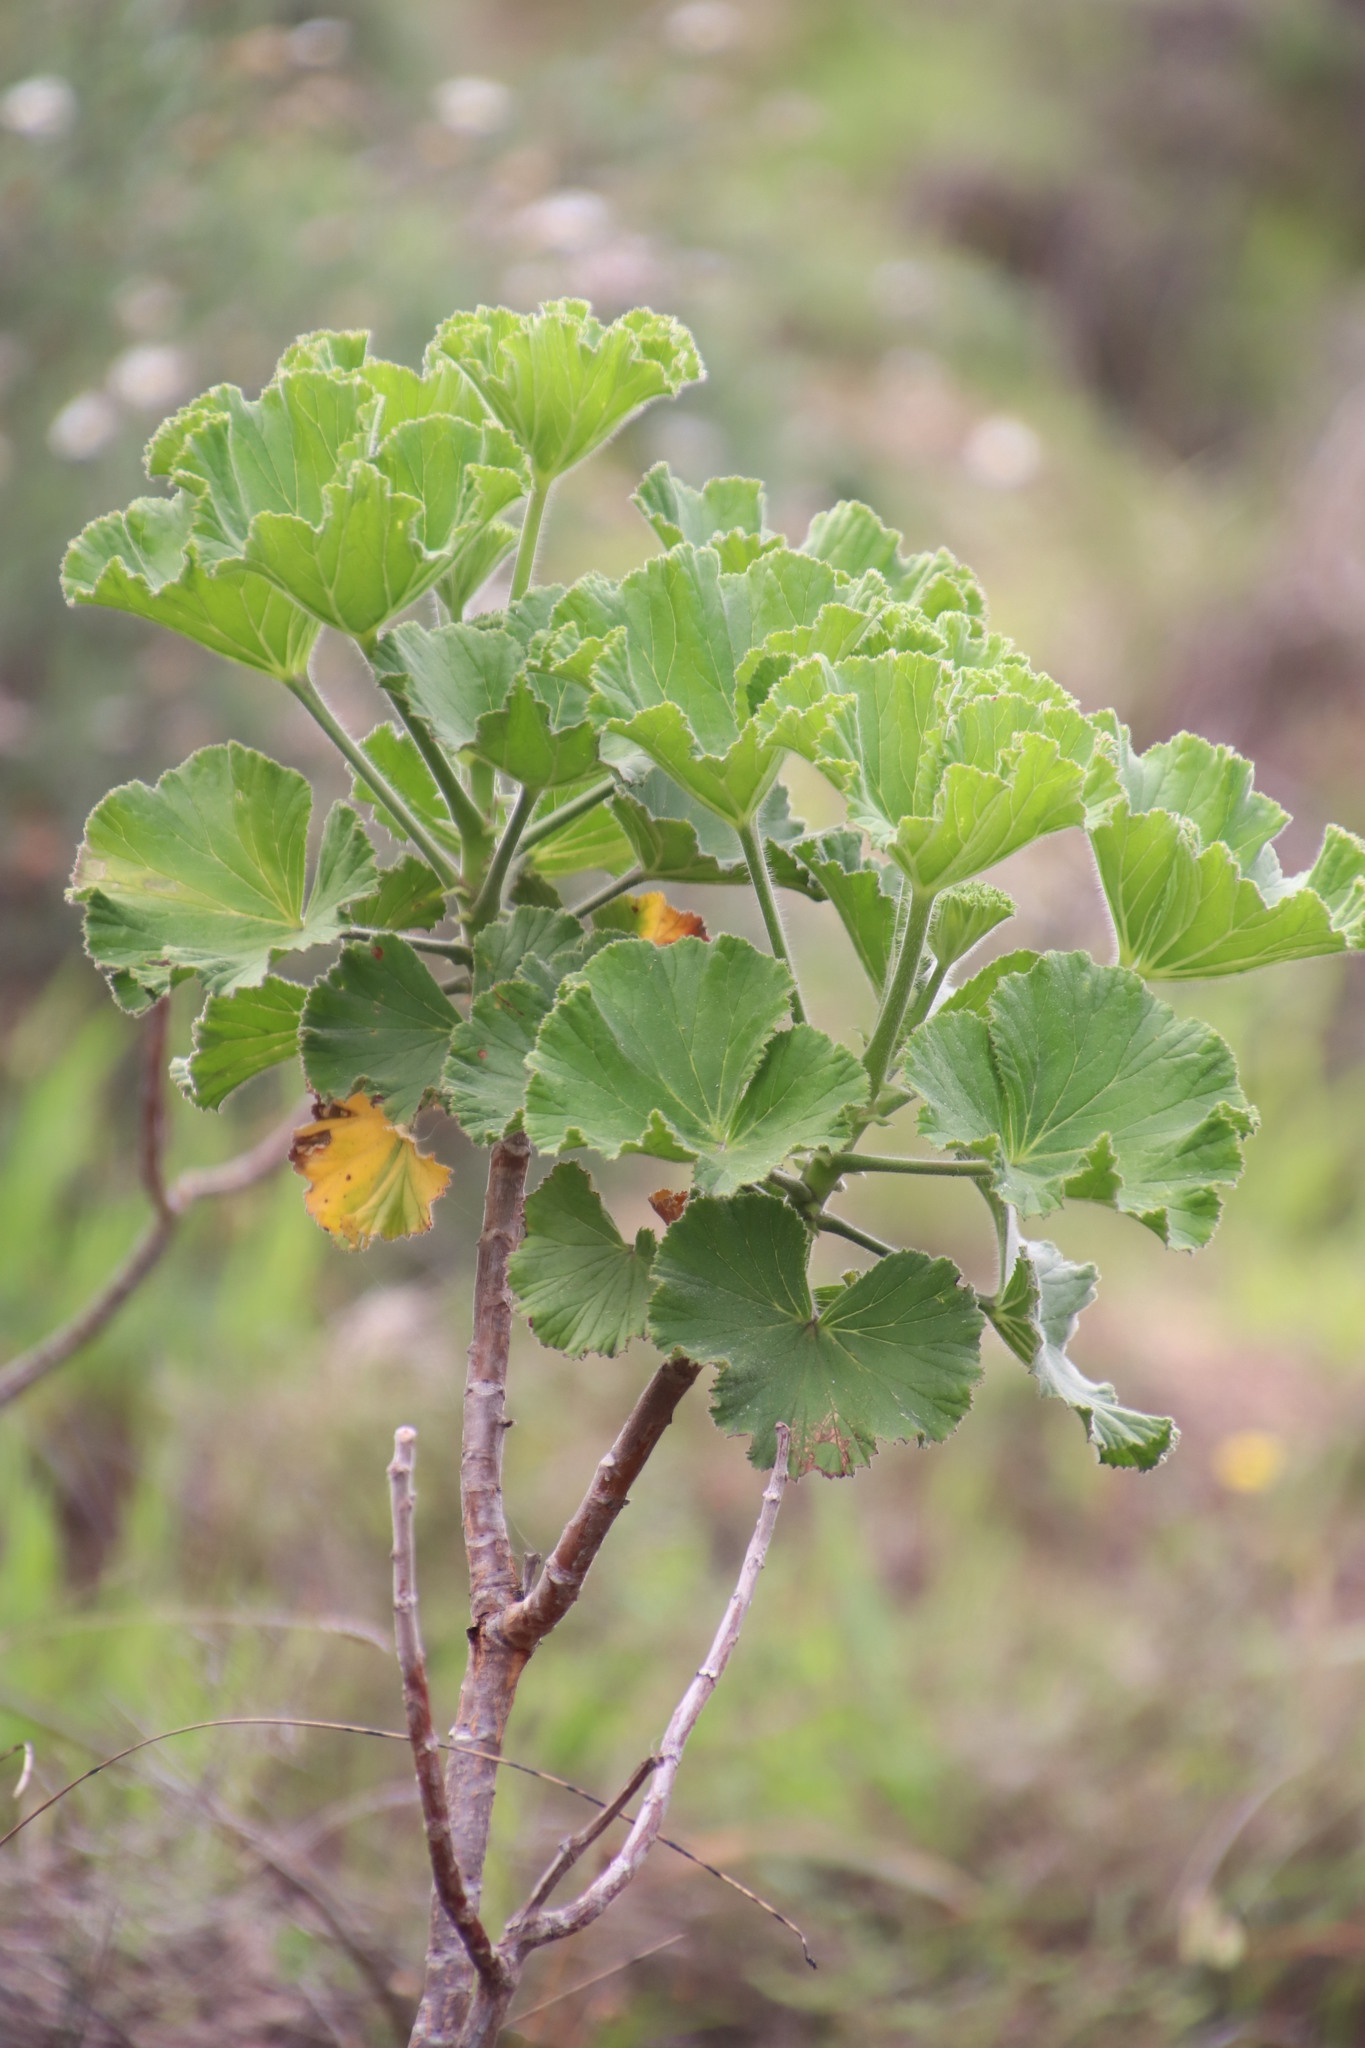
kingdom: Plantae
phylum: Tracheophyta
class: Magnoliopsida
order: Geraniales
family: Geraniaceae
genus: Pelargonium
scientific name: Pelargonium cucullatum
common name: Tree pelargonium
